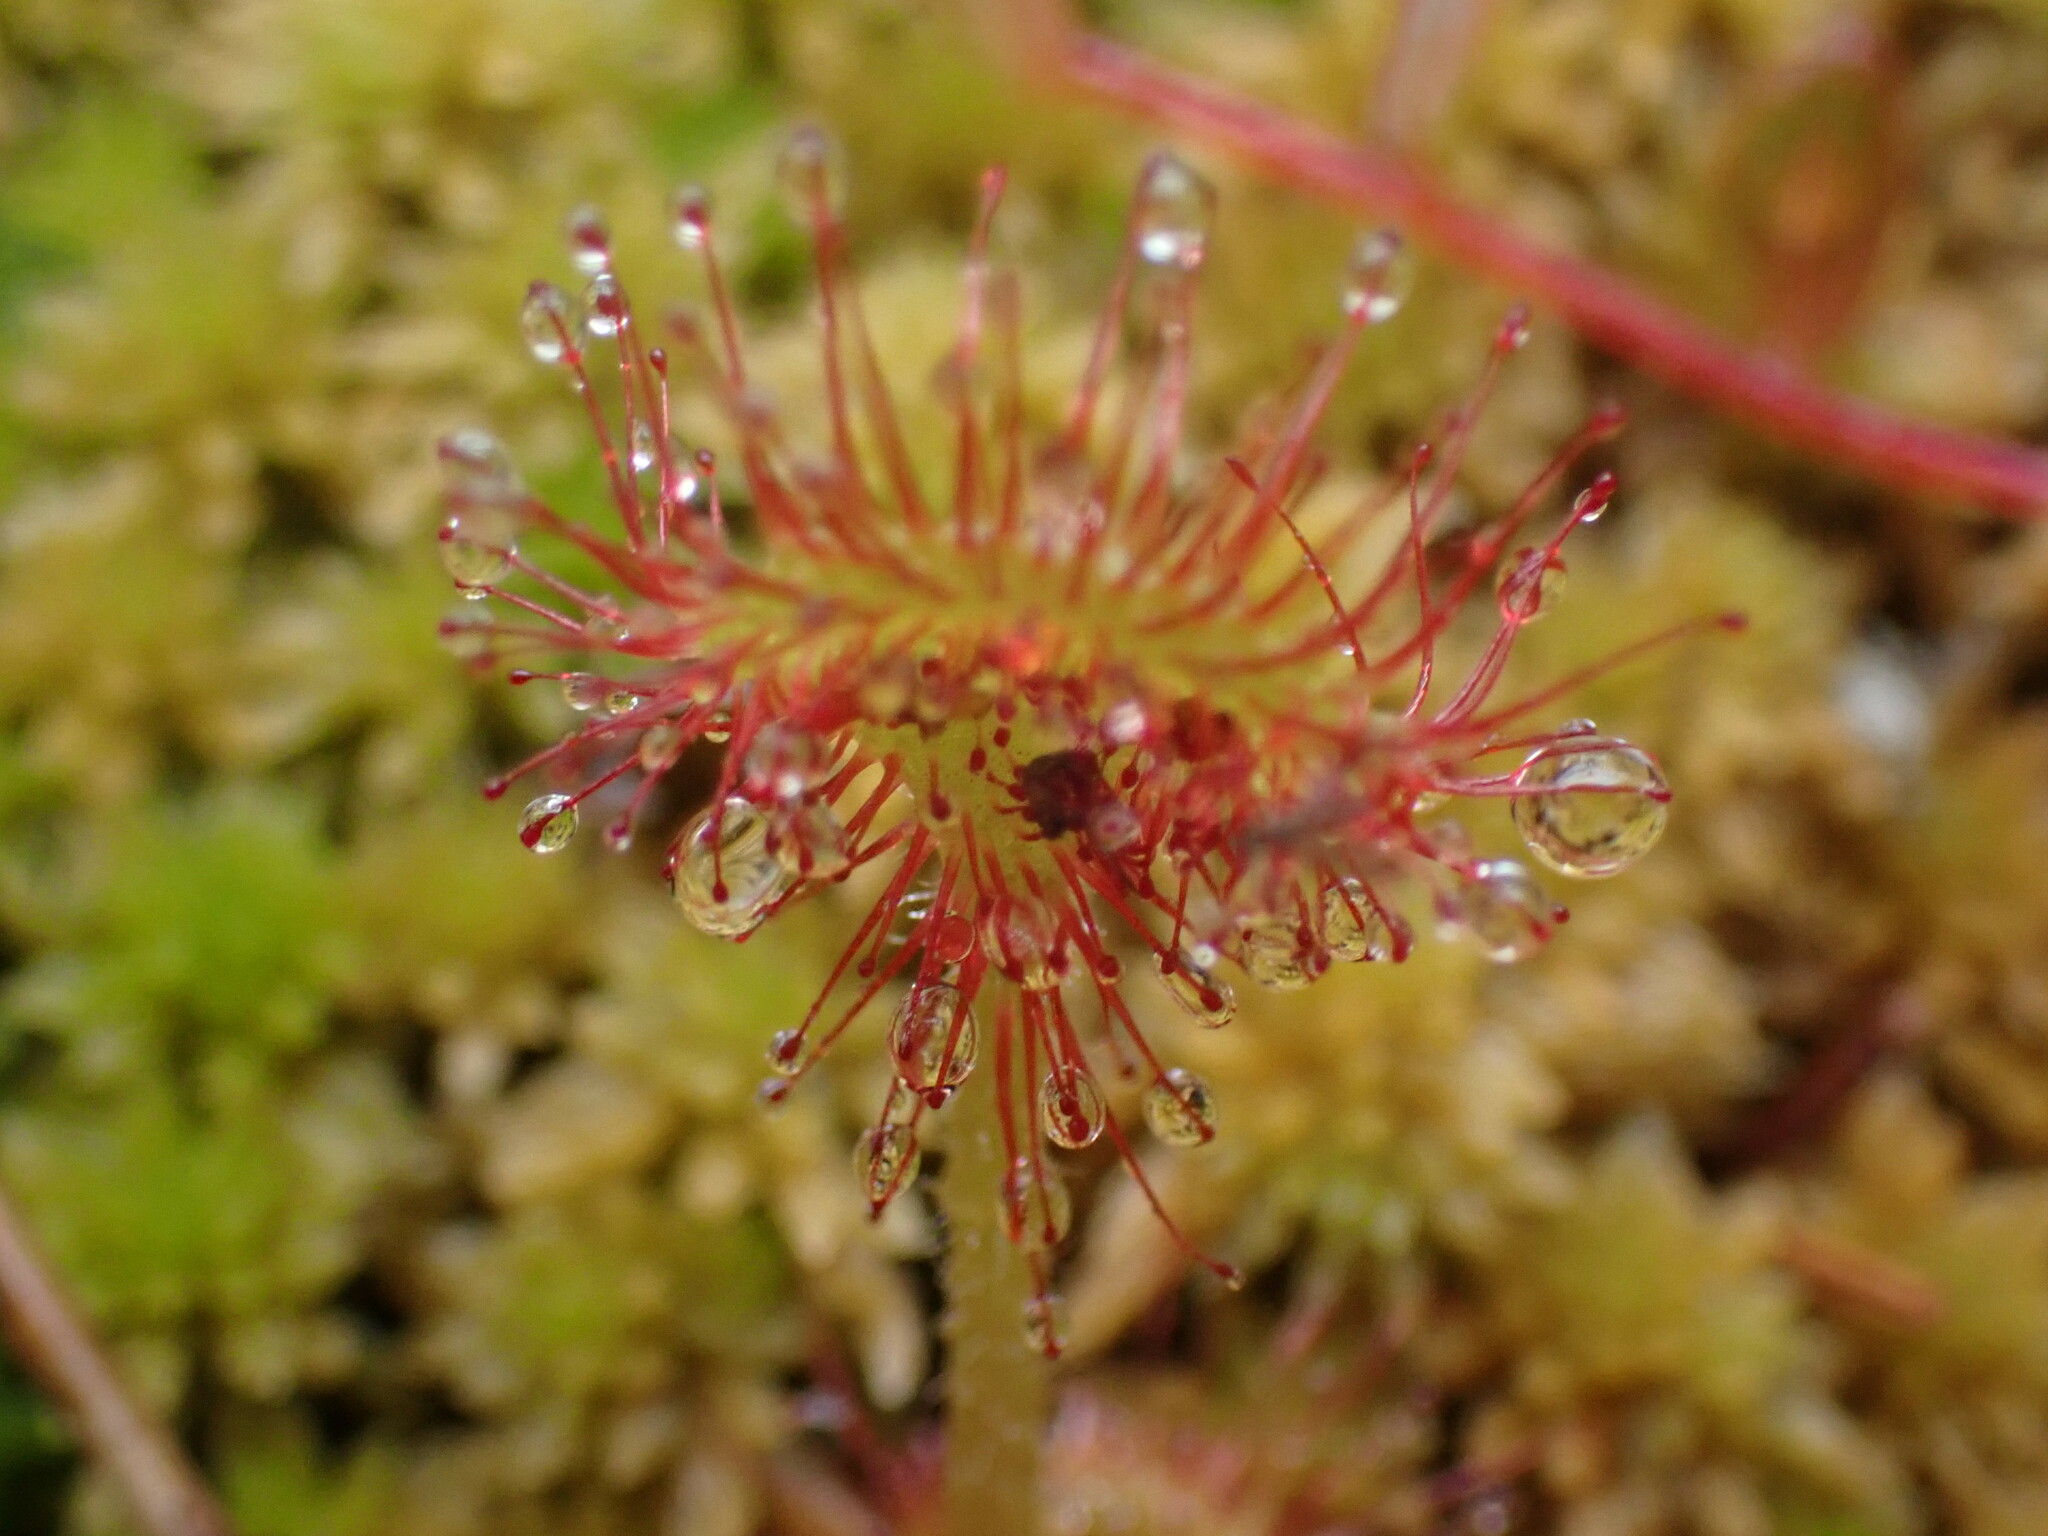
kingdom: Plantae
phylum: Tracheophyta
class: Magnoliopsida
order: Caryophyllales
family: Droseraceae
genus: Drosera
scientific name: Drosera rotundifolia
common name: Round-leaved sundew
